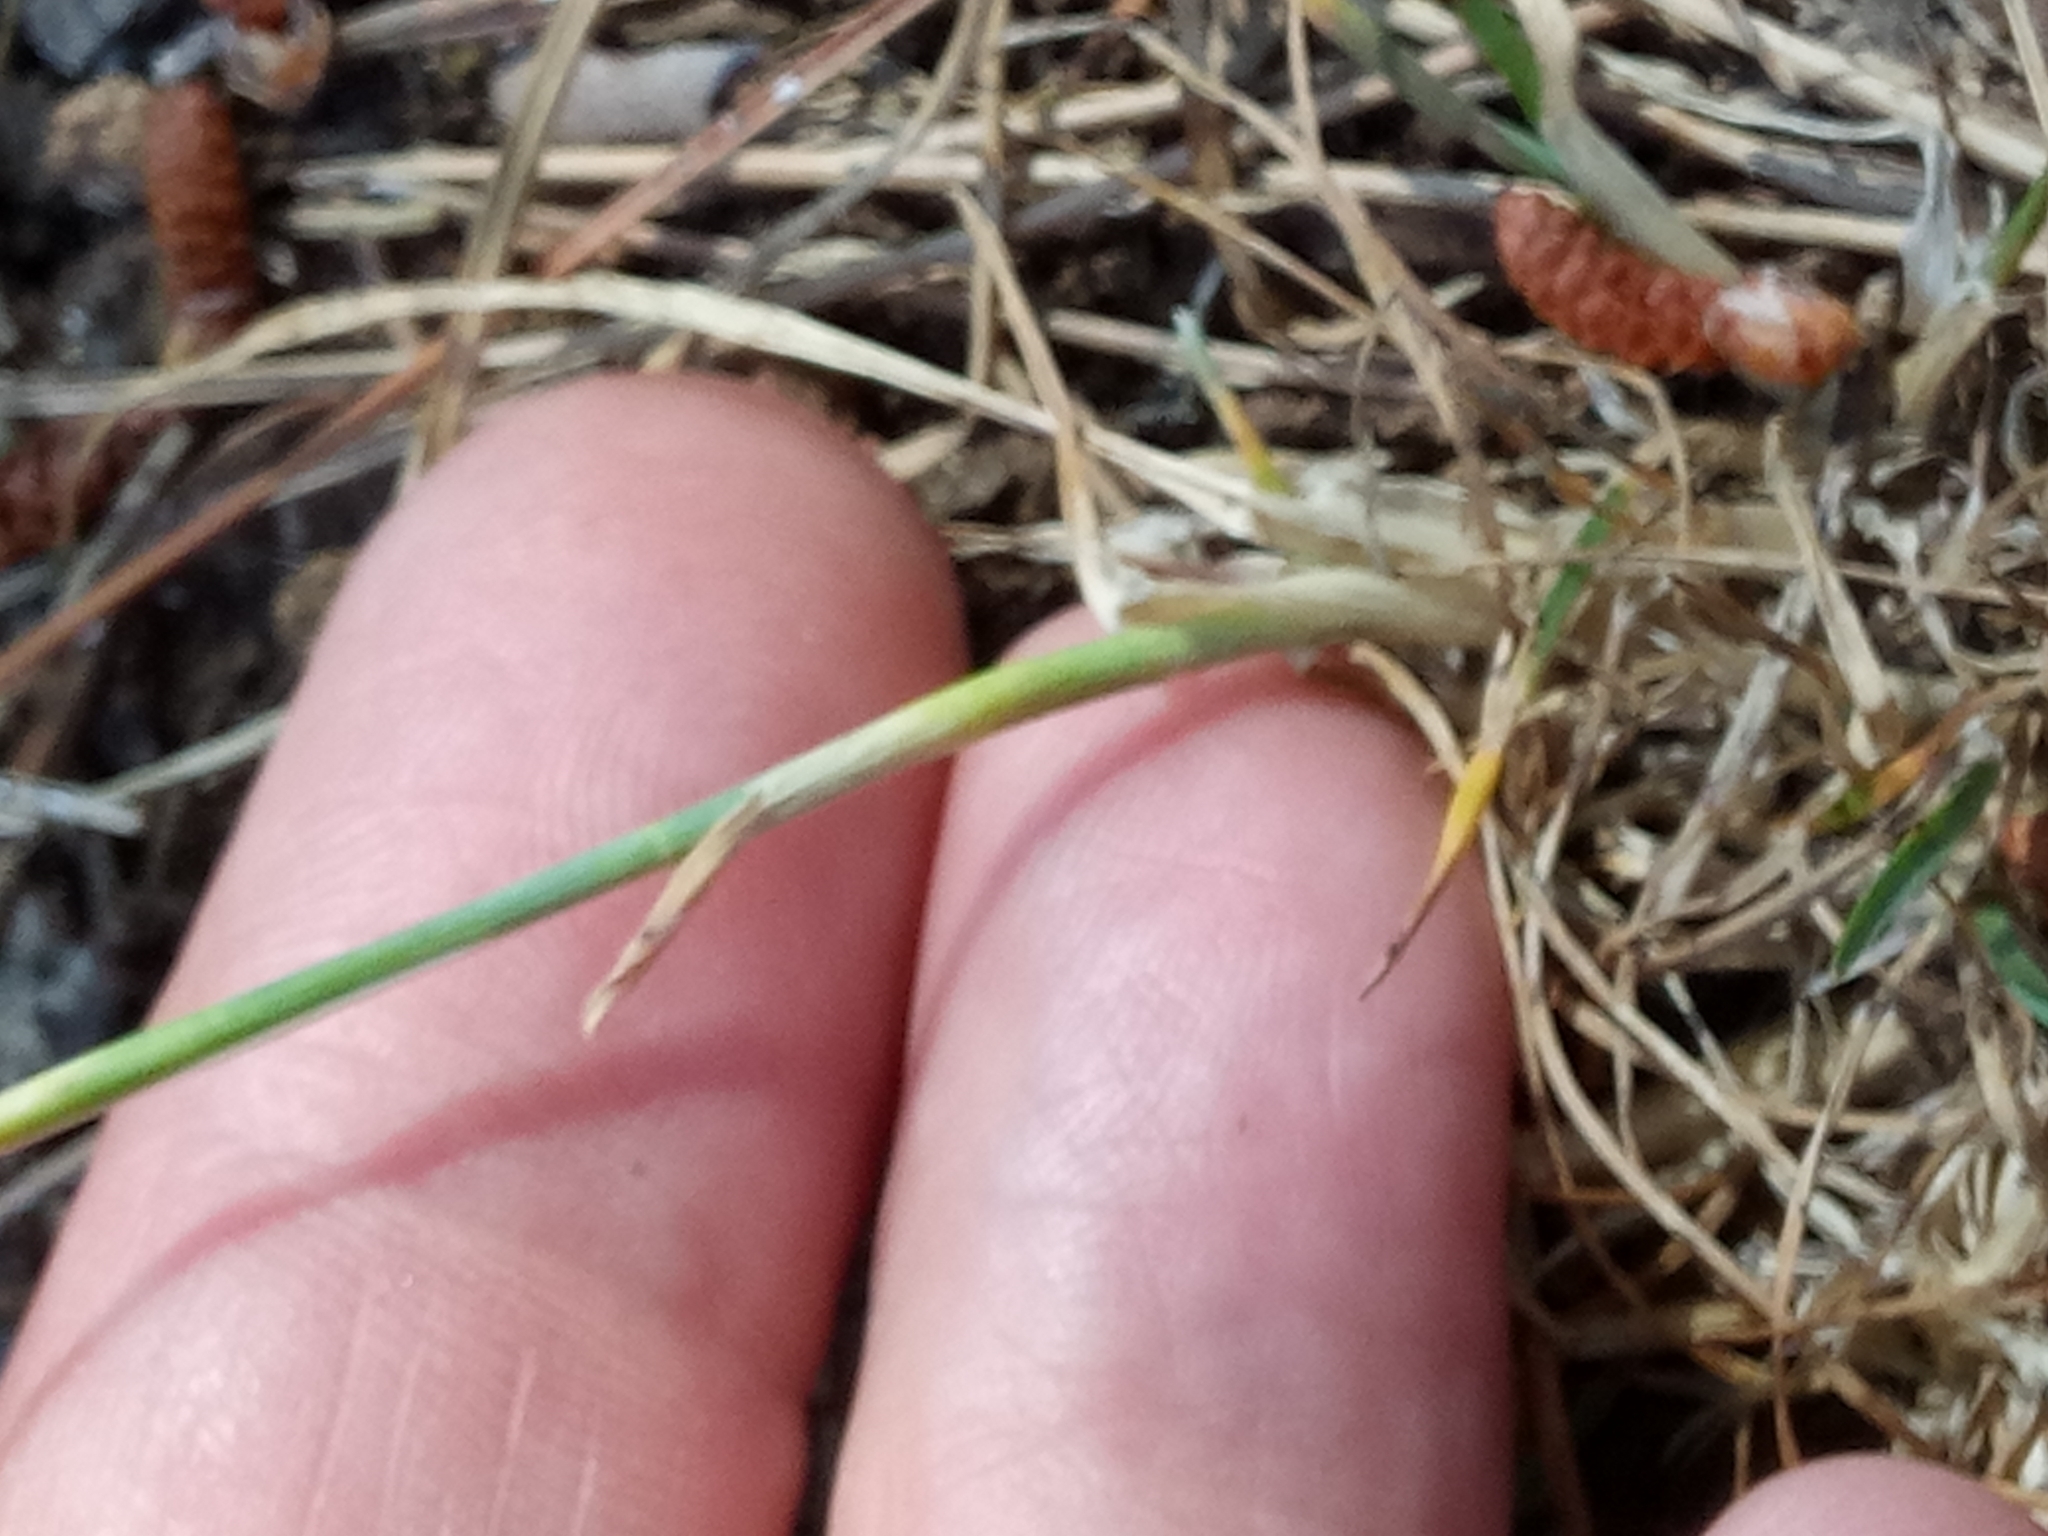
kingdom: Plantae
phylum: Tracheophyta
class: Liliopsida
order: Poales
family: Poaceae
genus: Poa
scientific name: Poa bulbosa
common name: Bulbous bluegrass
